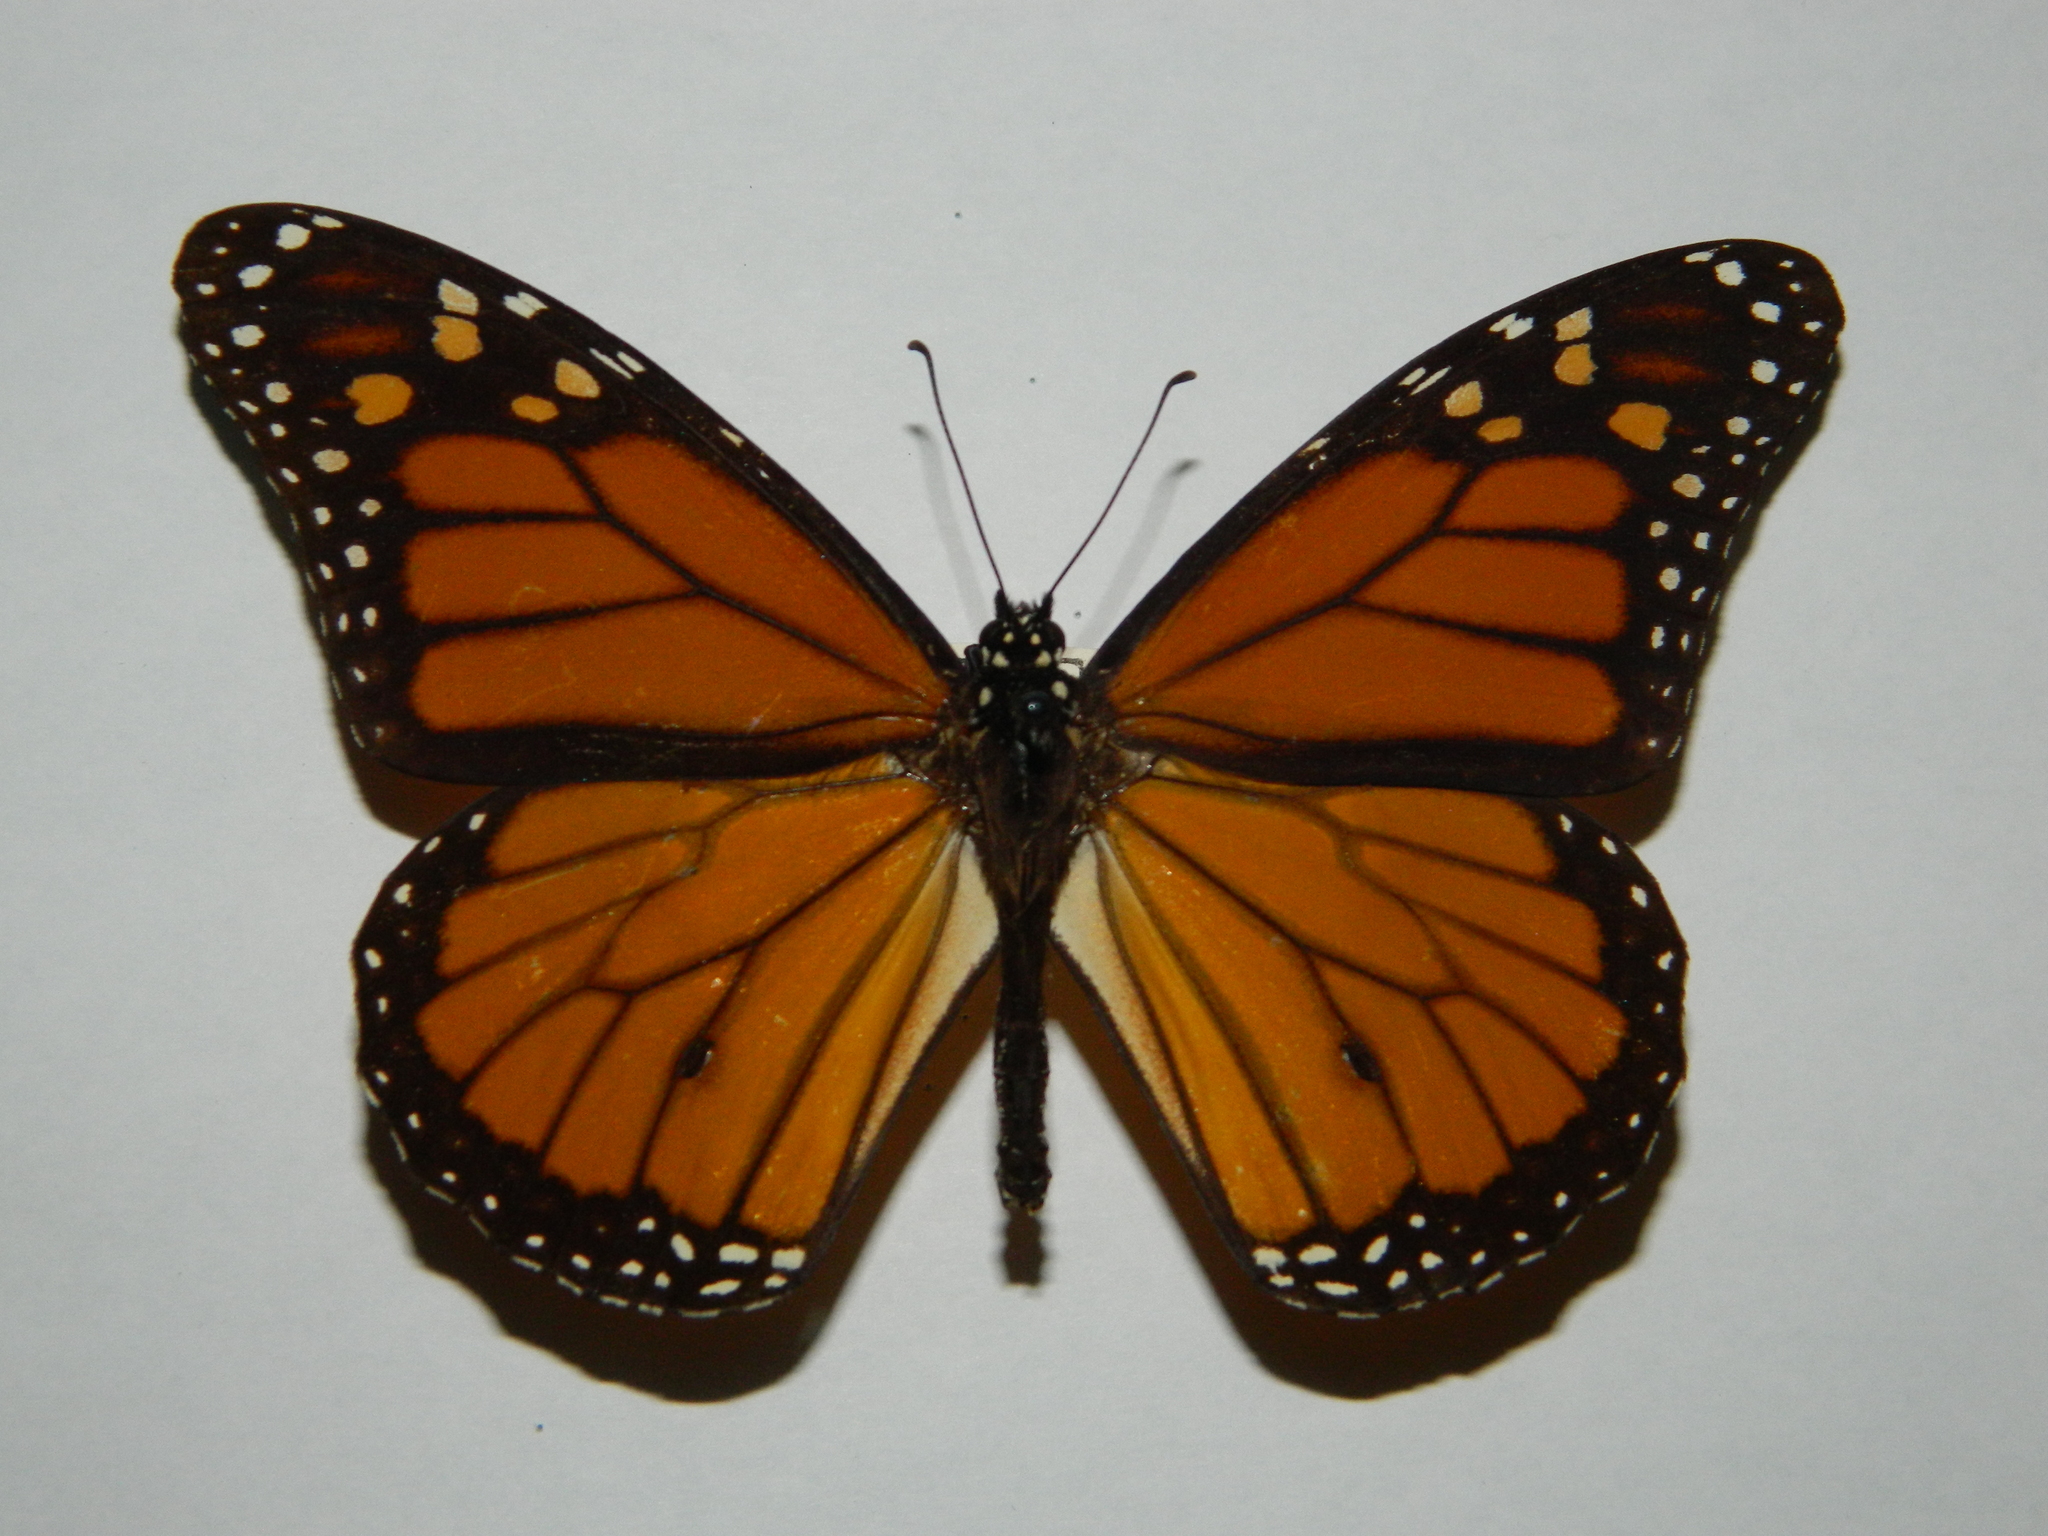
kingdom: Animalia
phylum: Arthropoda
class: Insecta
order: Lepidoptera
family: Nymphalidae
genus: Danaus
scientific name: Danaus plexippus
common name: Monarch
